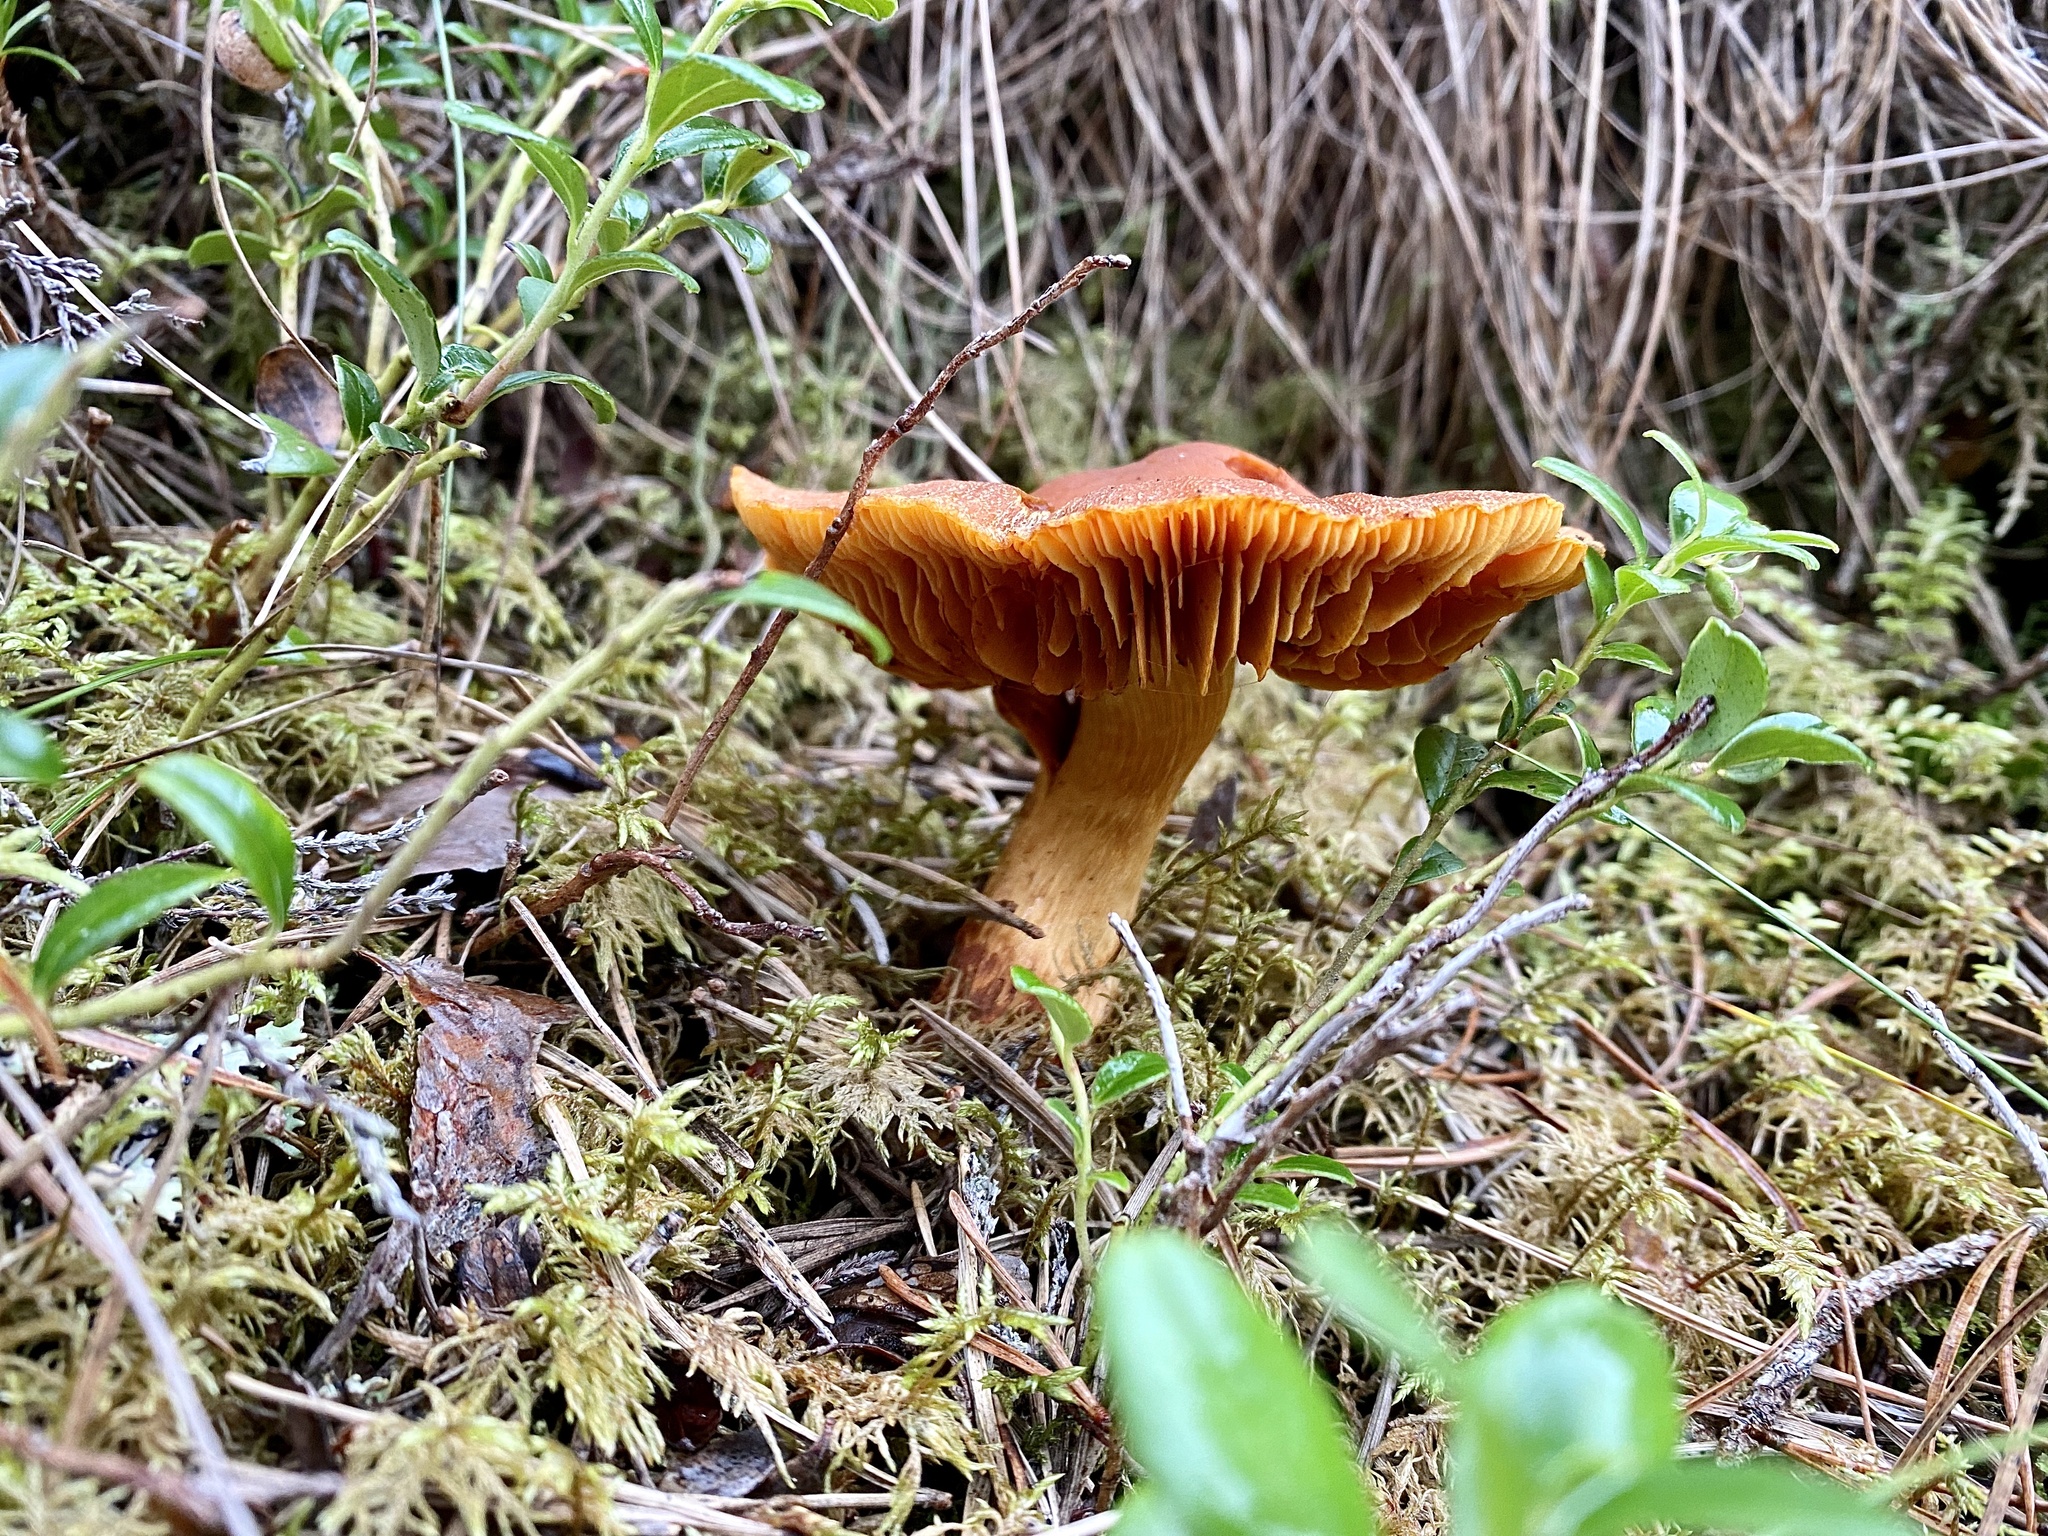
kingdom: Fungi
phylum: Basidiomycota
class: Agaricomycetes
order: Agaricales
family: Cortinariaceae
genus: Cortinarius
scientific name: Cortinarius rubellus
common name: Deadly webcap
